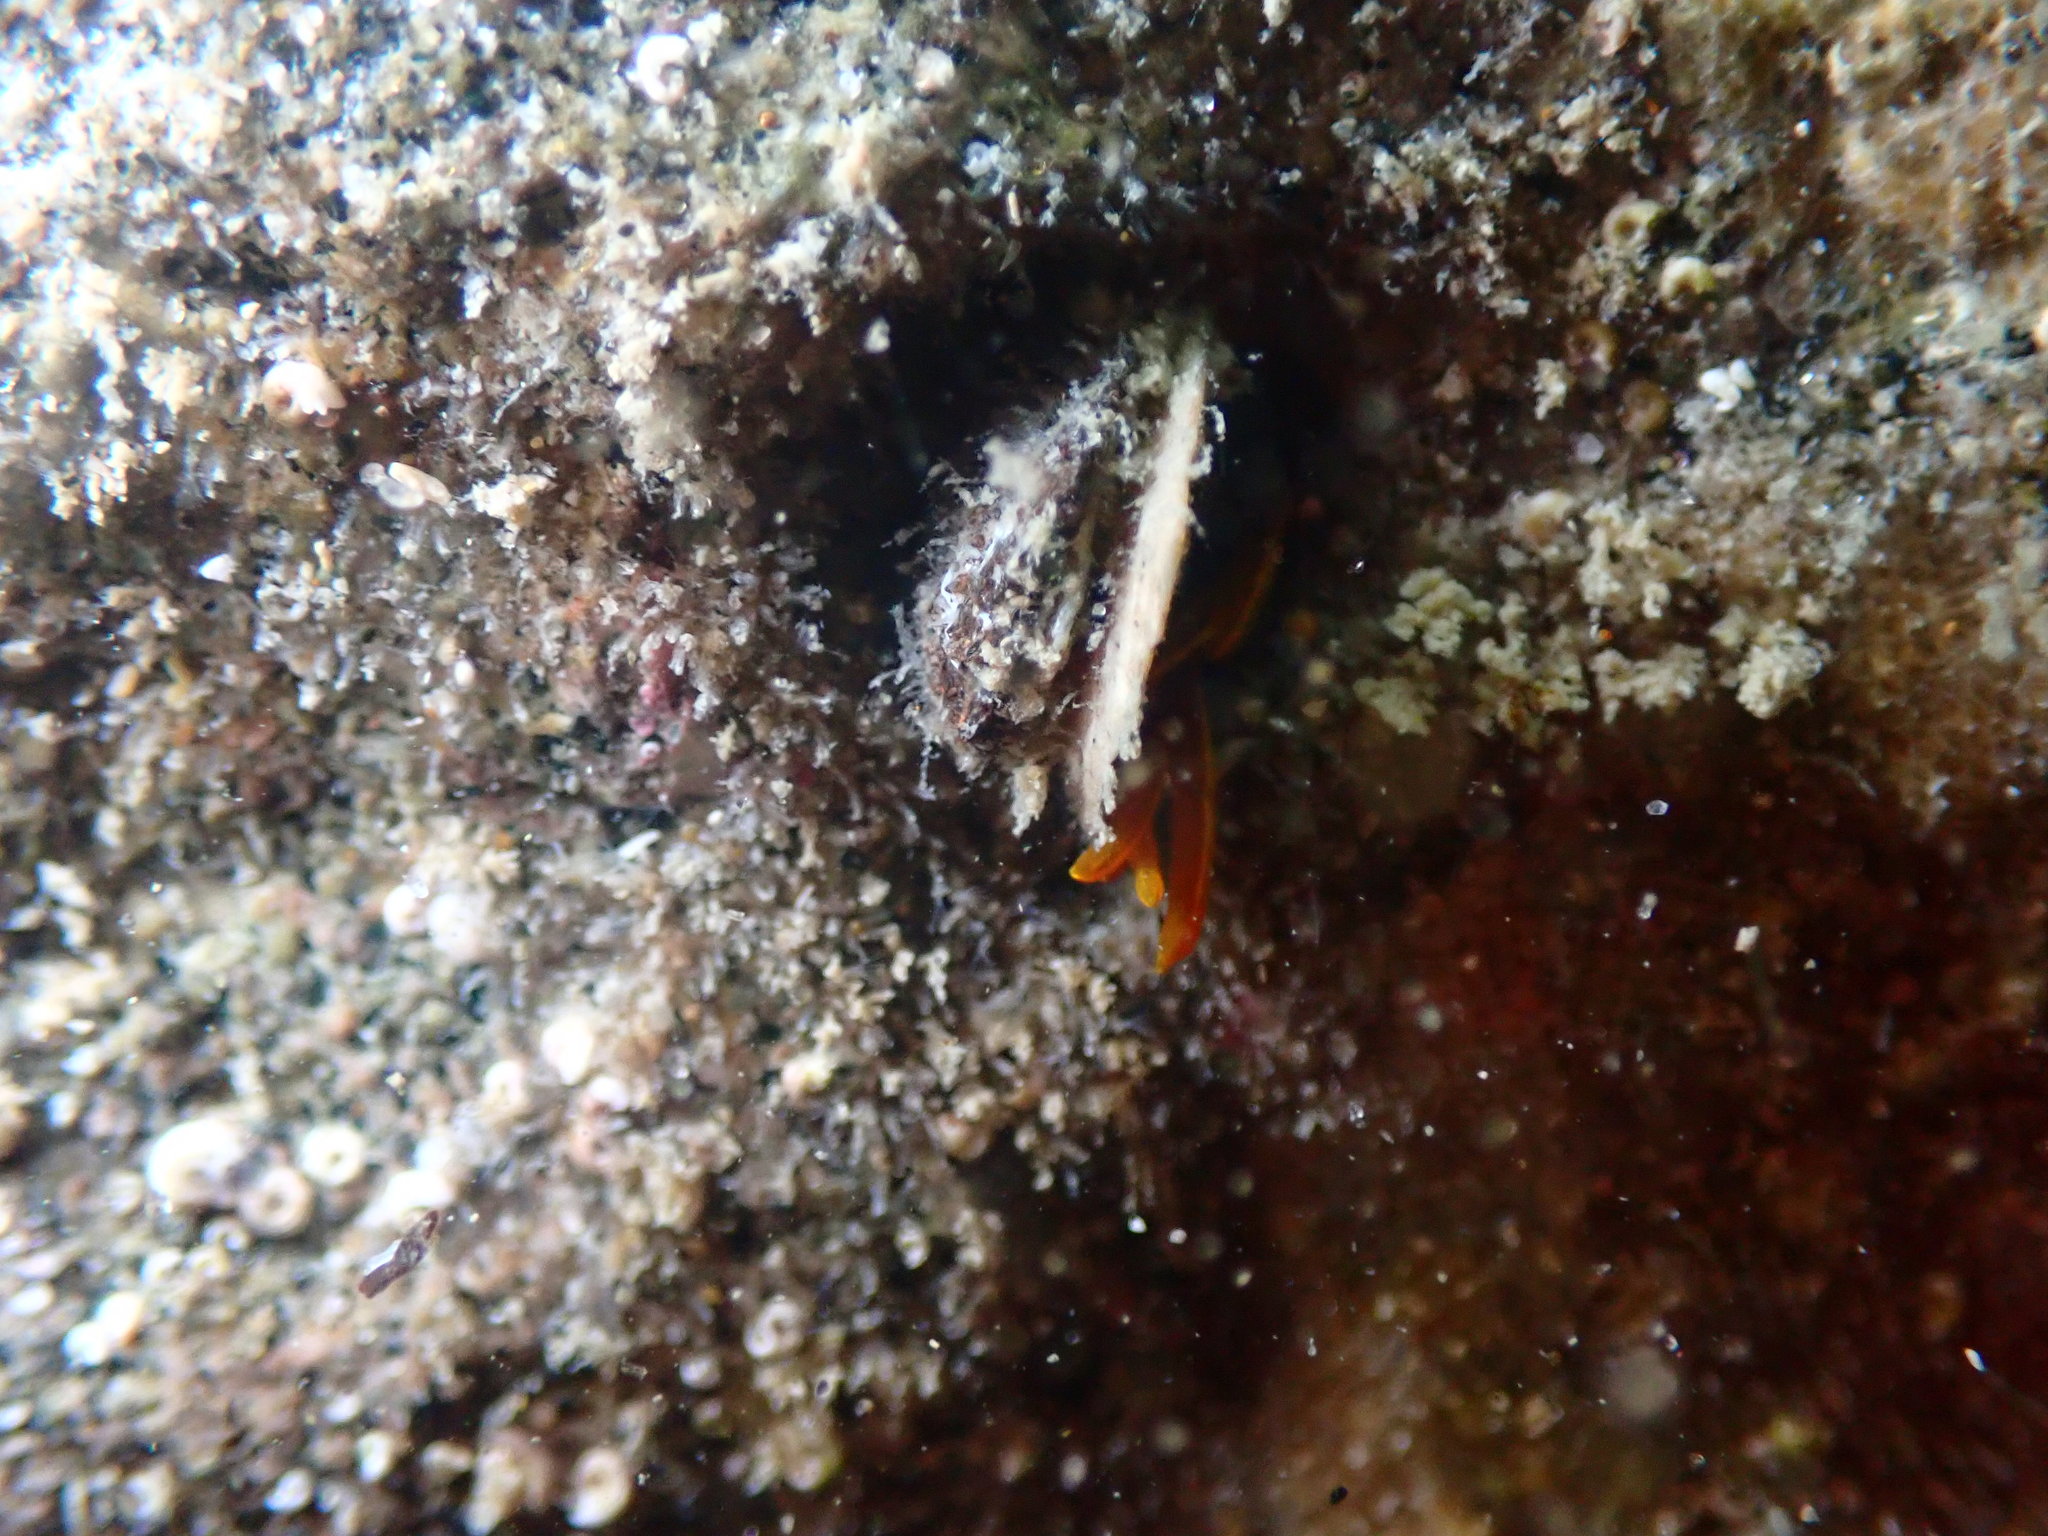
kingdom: Animalia
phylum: Annelida
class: Polychaeta
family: Acrocirridae
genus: Acrocirrus
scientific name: Acrocirrus
